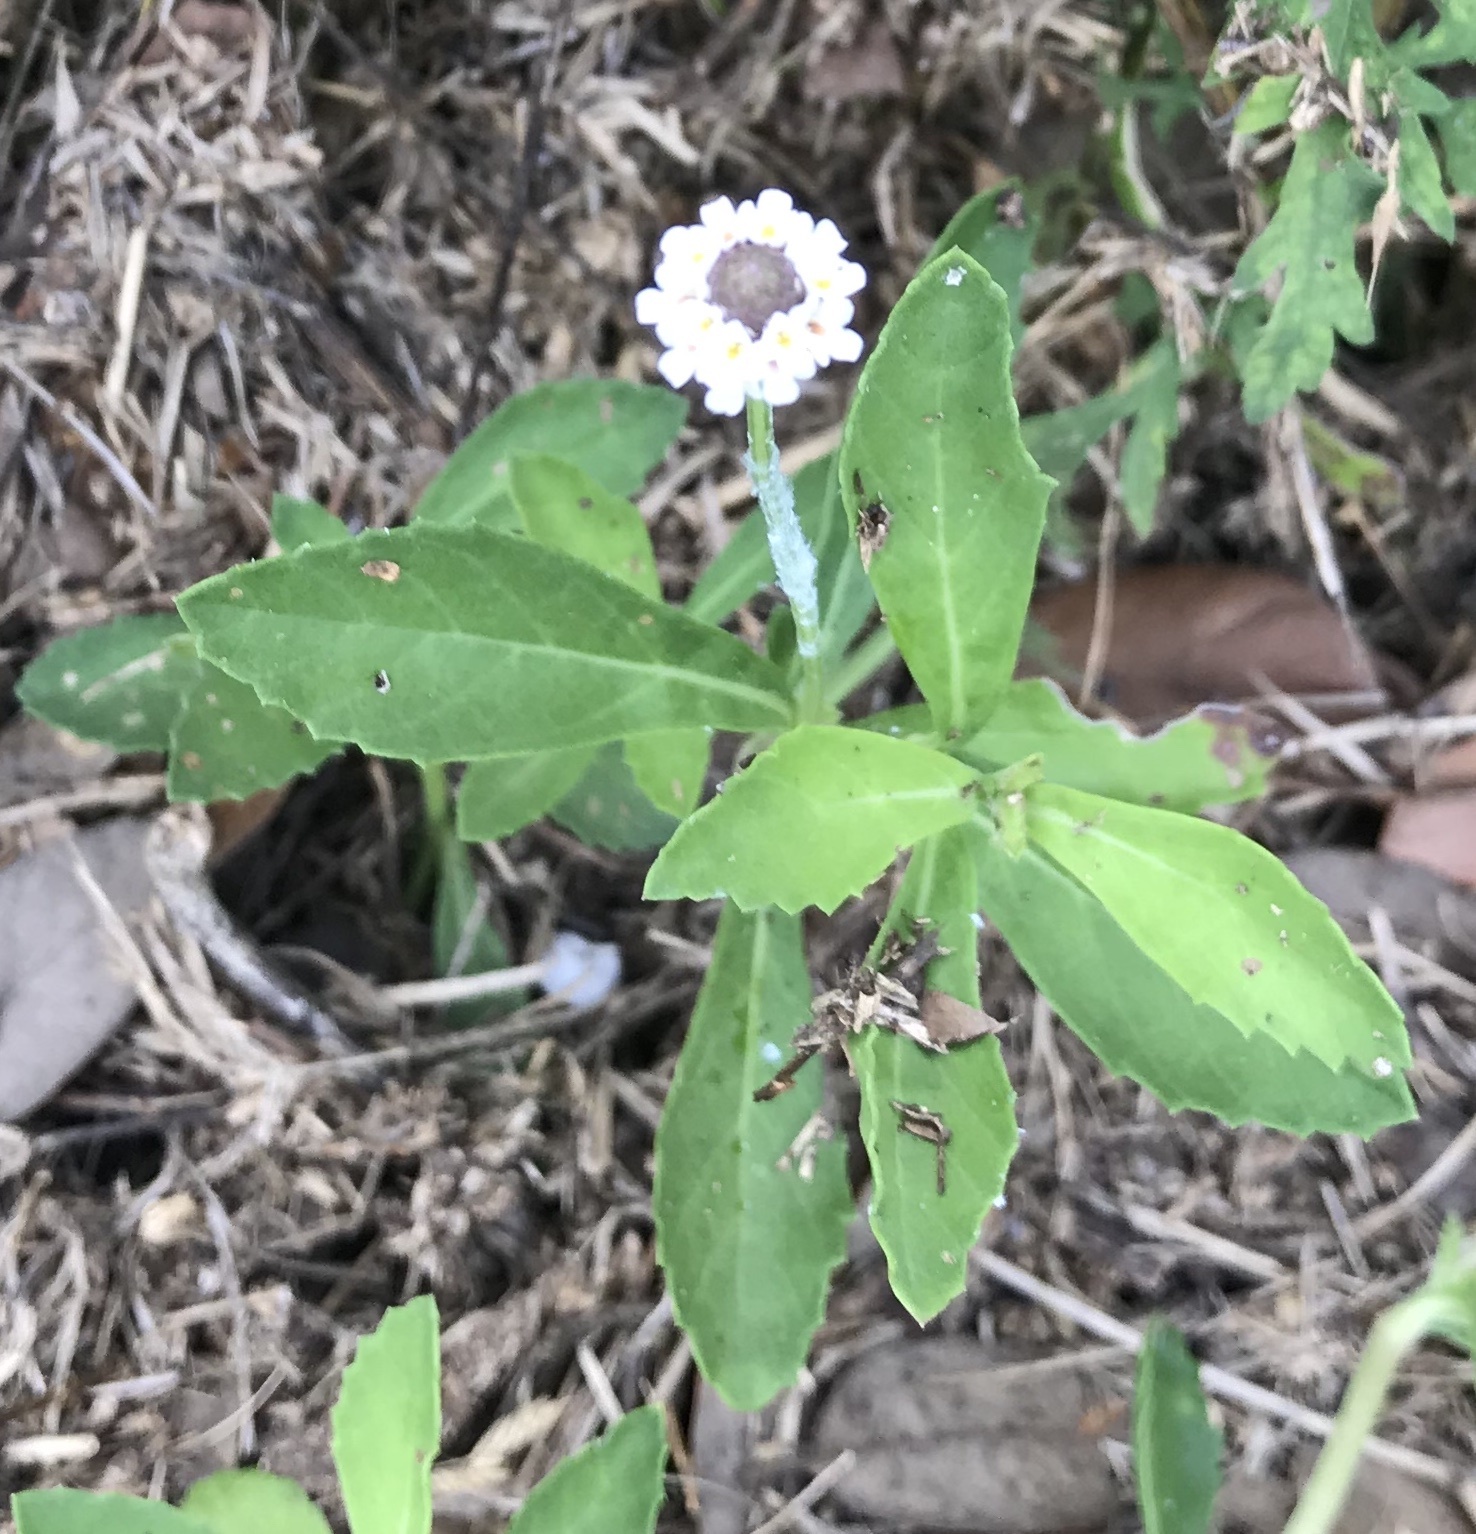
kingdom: Plantae
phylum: Tracheophyta
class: Magnoliopsida
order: Lamiales
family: Verbenaceae
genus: Phyla
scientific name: Phyla nodiflora
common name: Frogfruit
